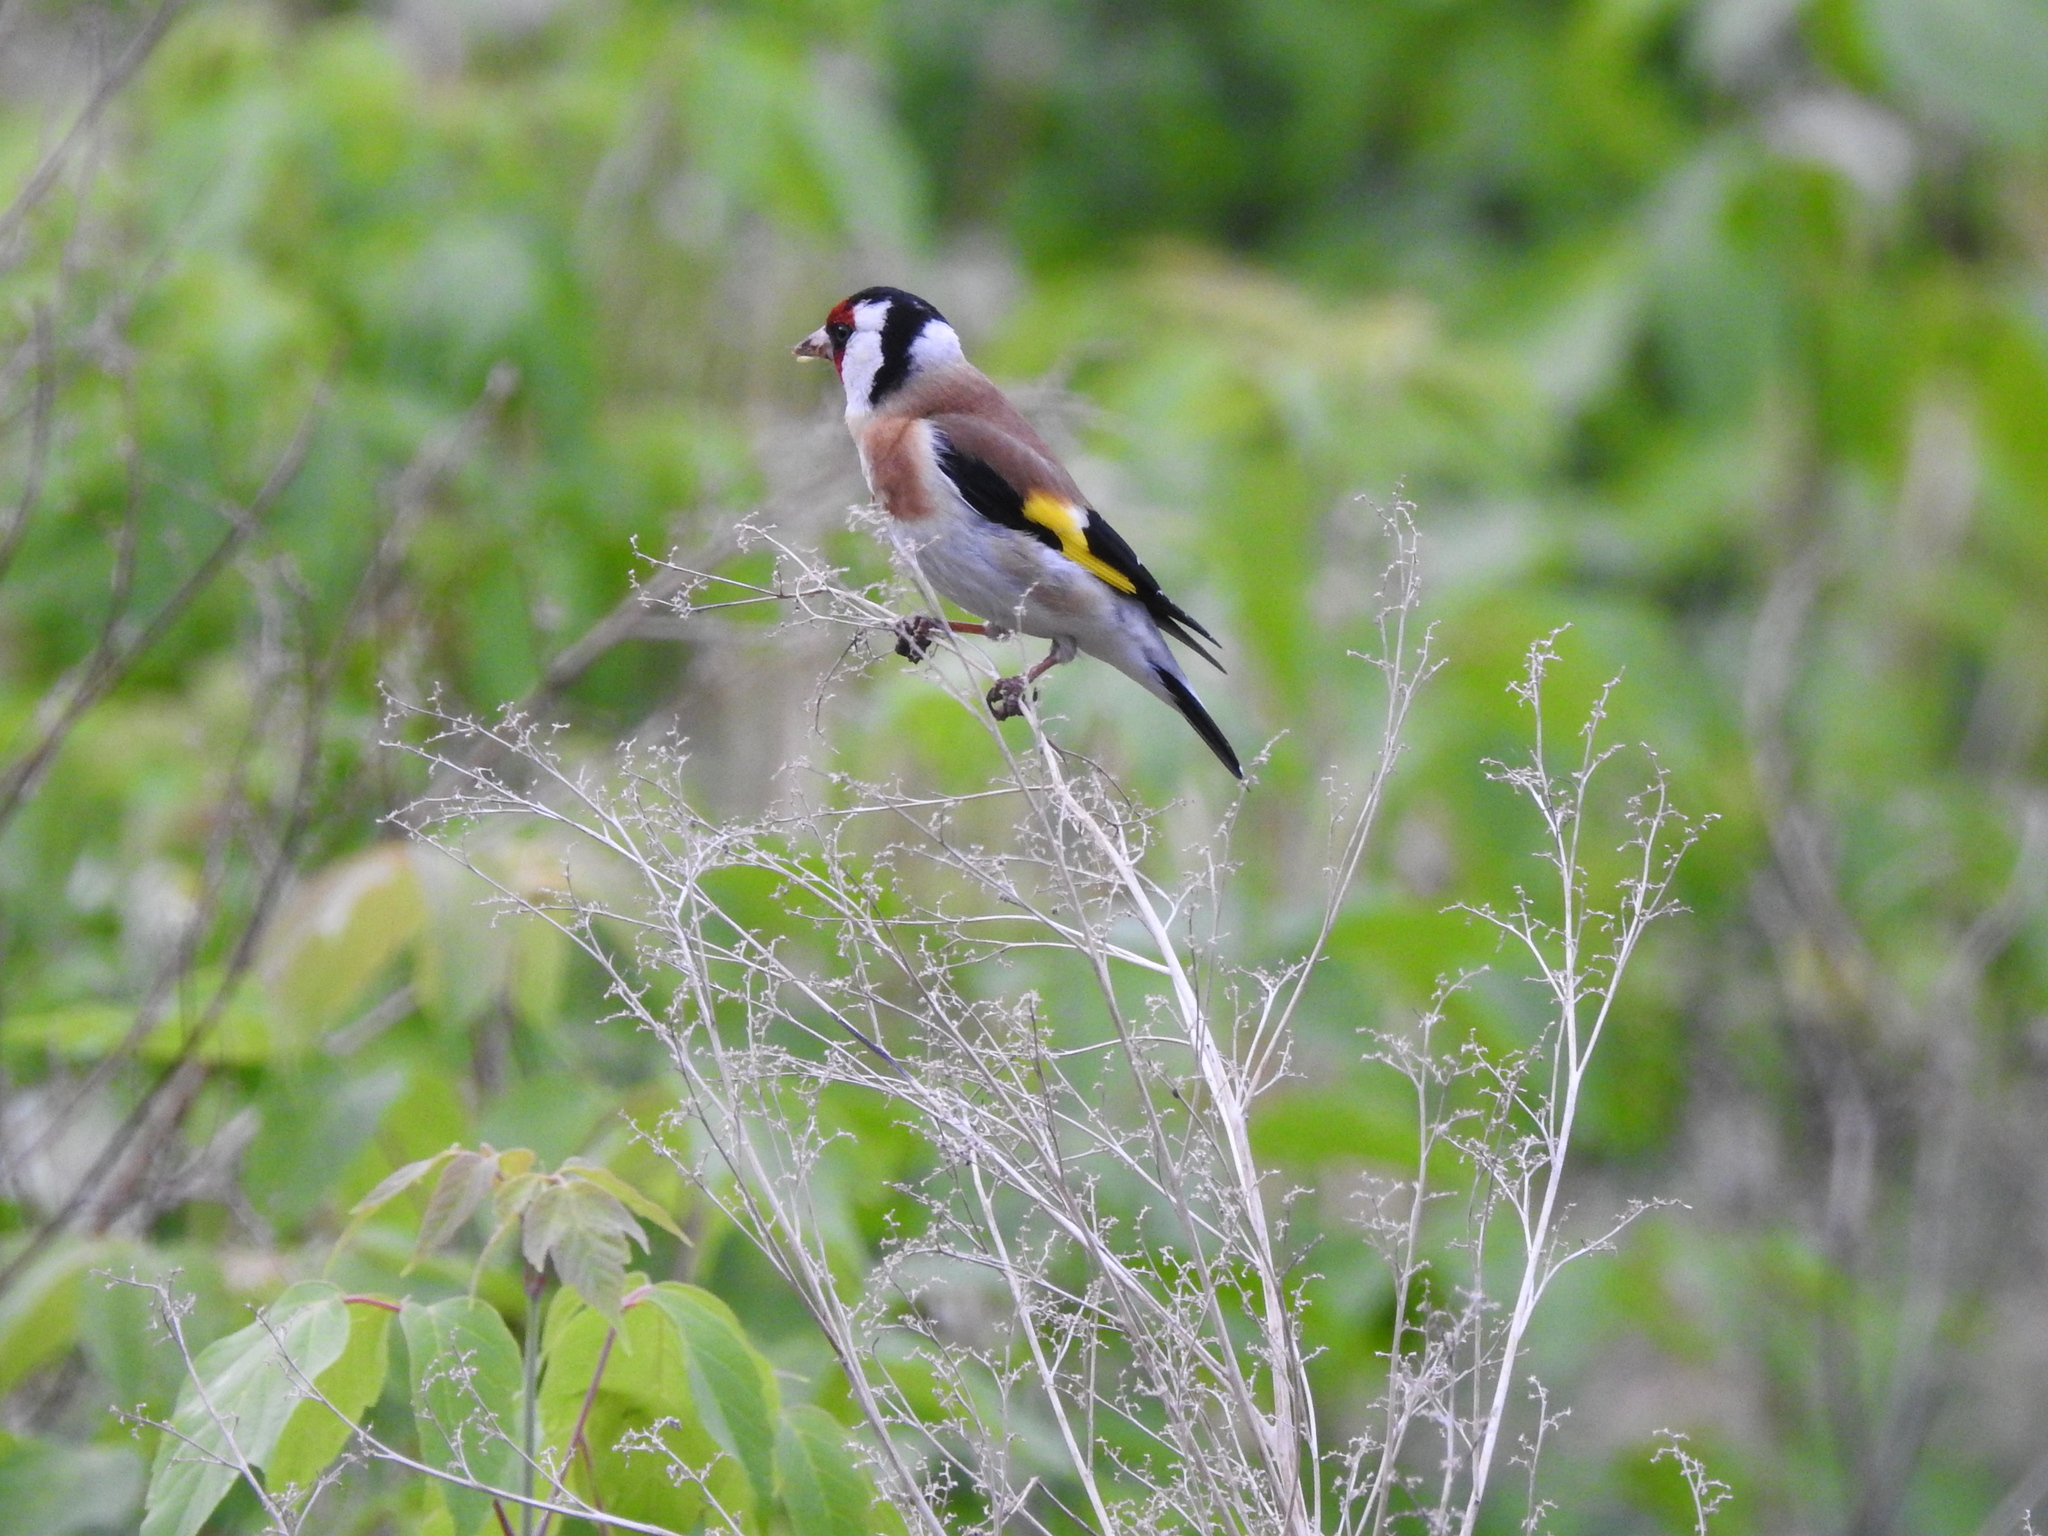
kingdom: Animalia
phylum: Chordata
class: Aves
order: Passeriformes
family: Fringillidae
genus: Carduelis
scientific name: Carduelis carduelis
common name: European goldfinch
